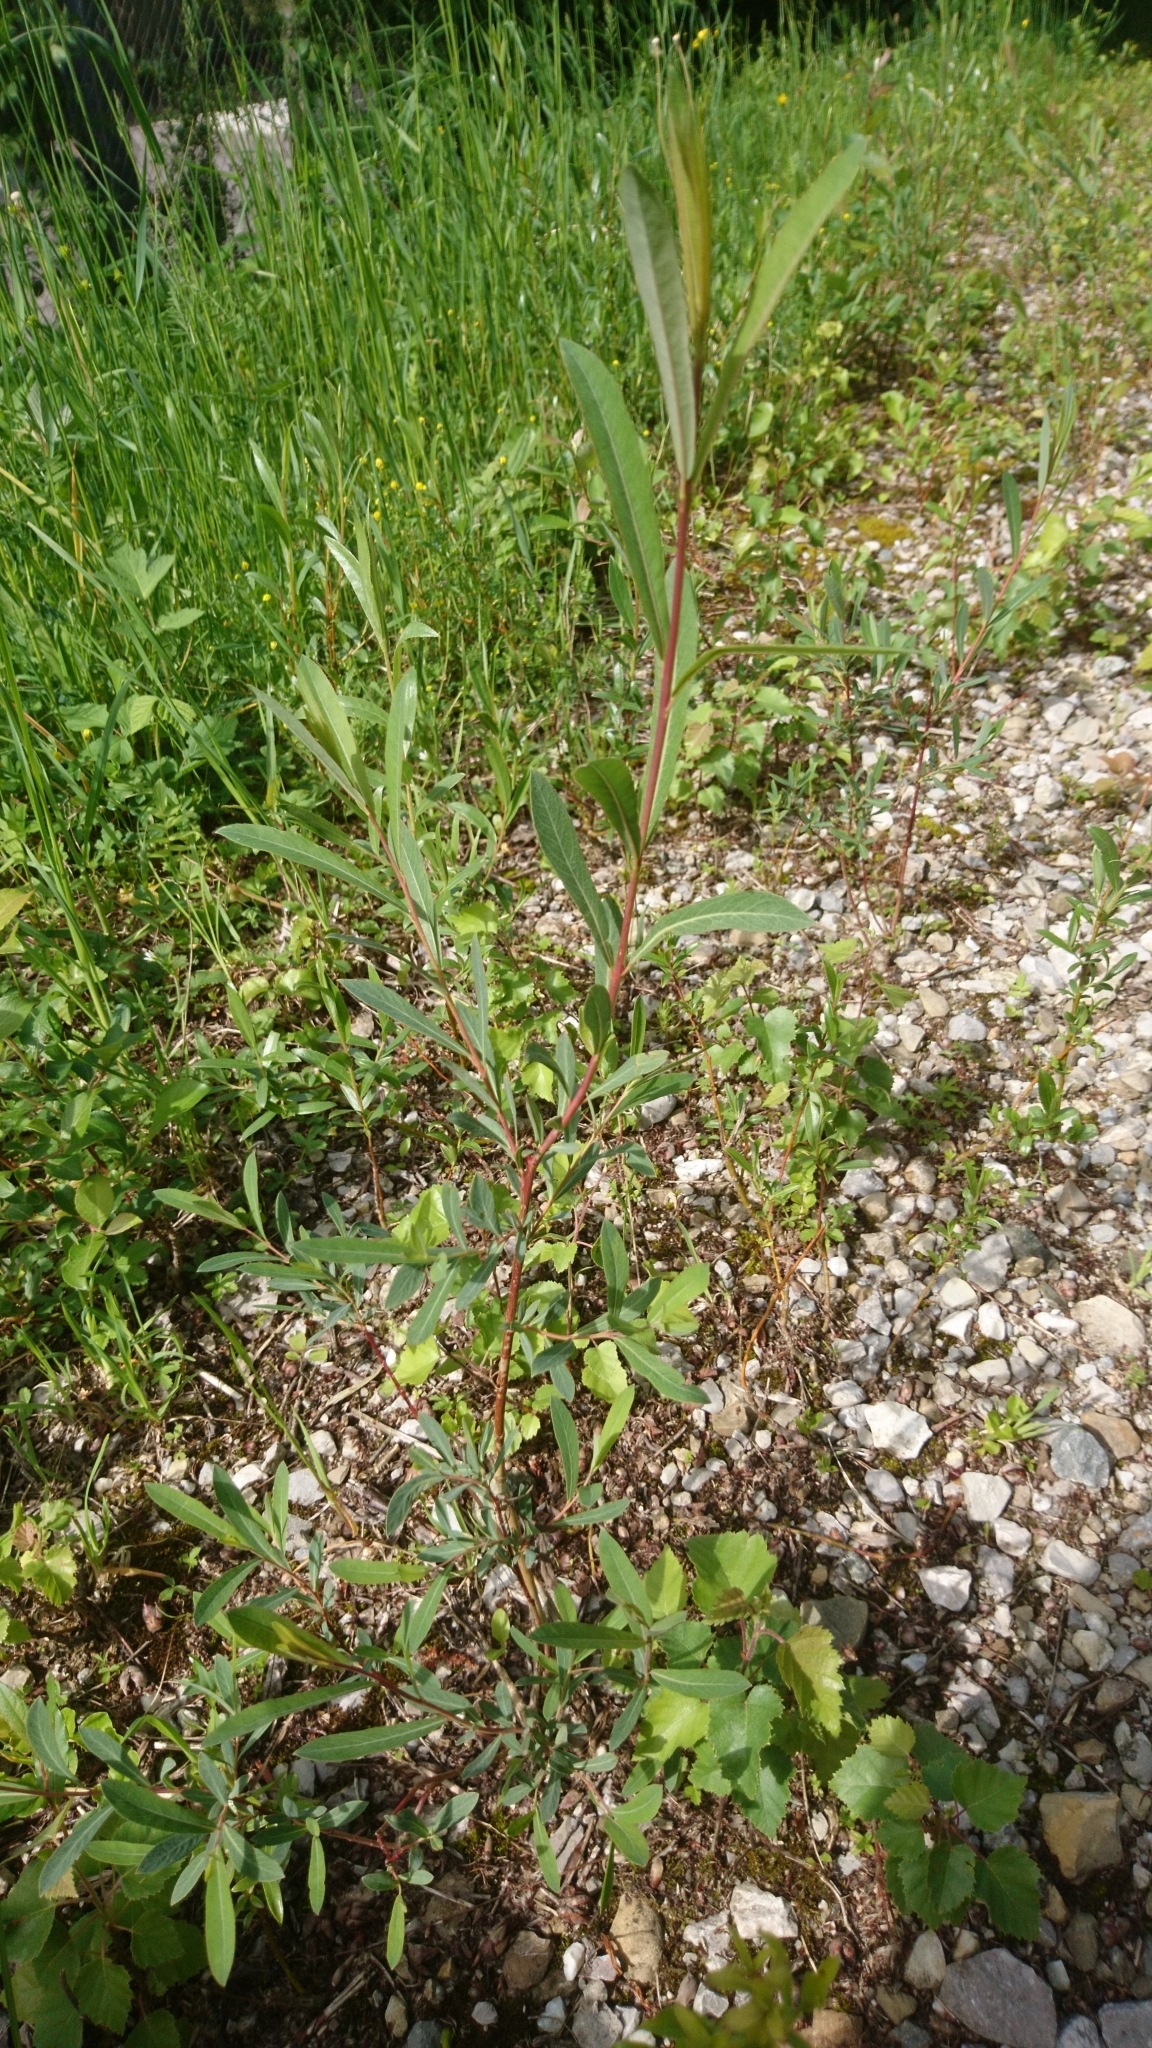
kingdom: Plantae
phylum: Tracheophyta
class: Magnoliopsida
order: Malpighiales
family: Salicaceae
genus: Salix
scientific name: Salix purpurea
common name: Purple willow
